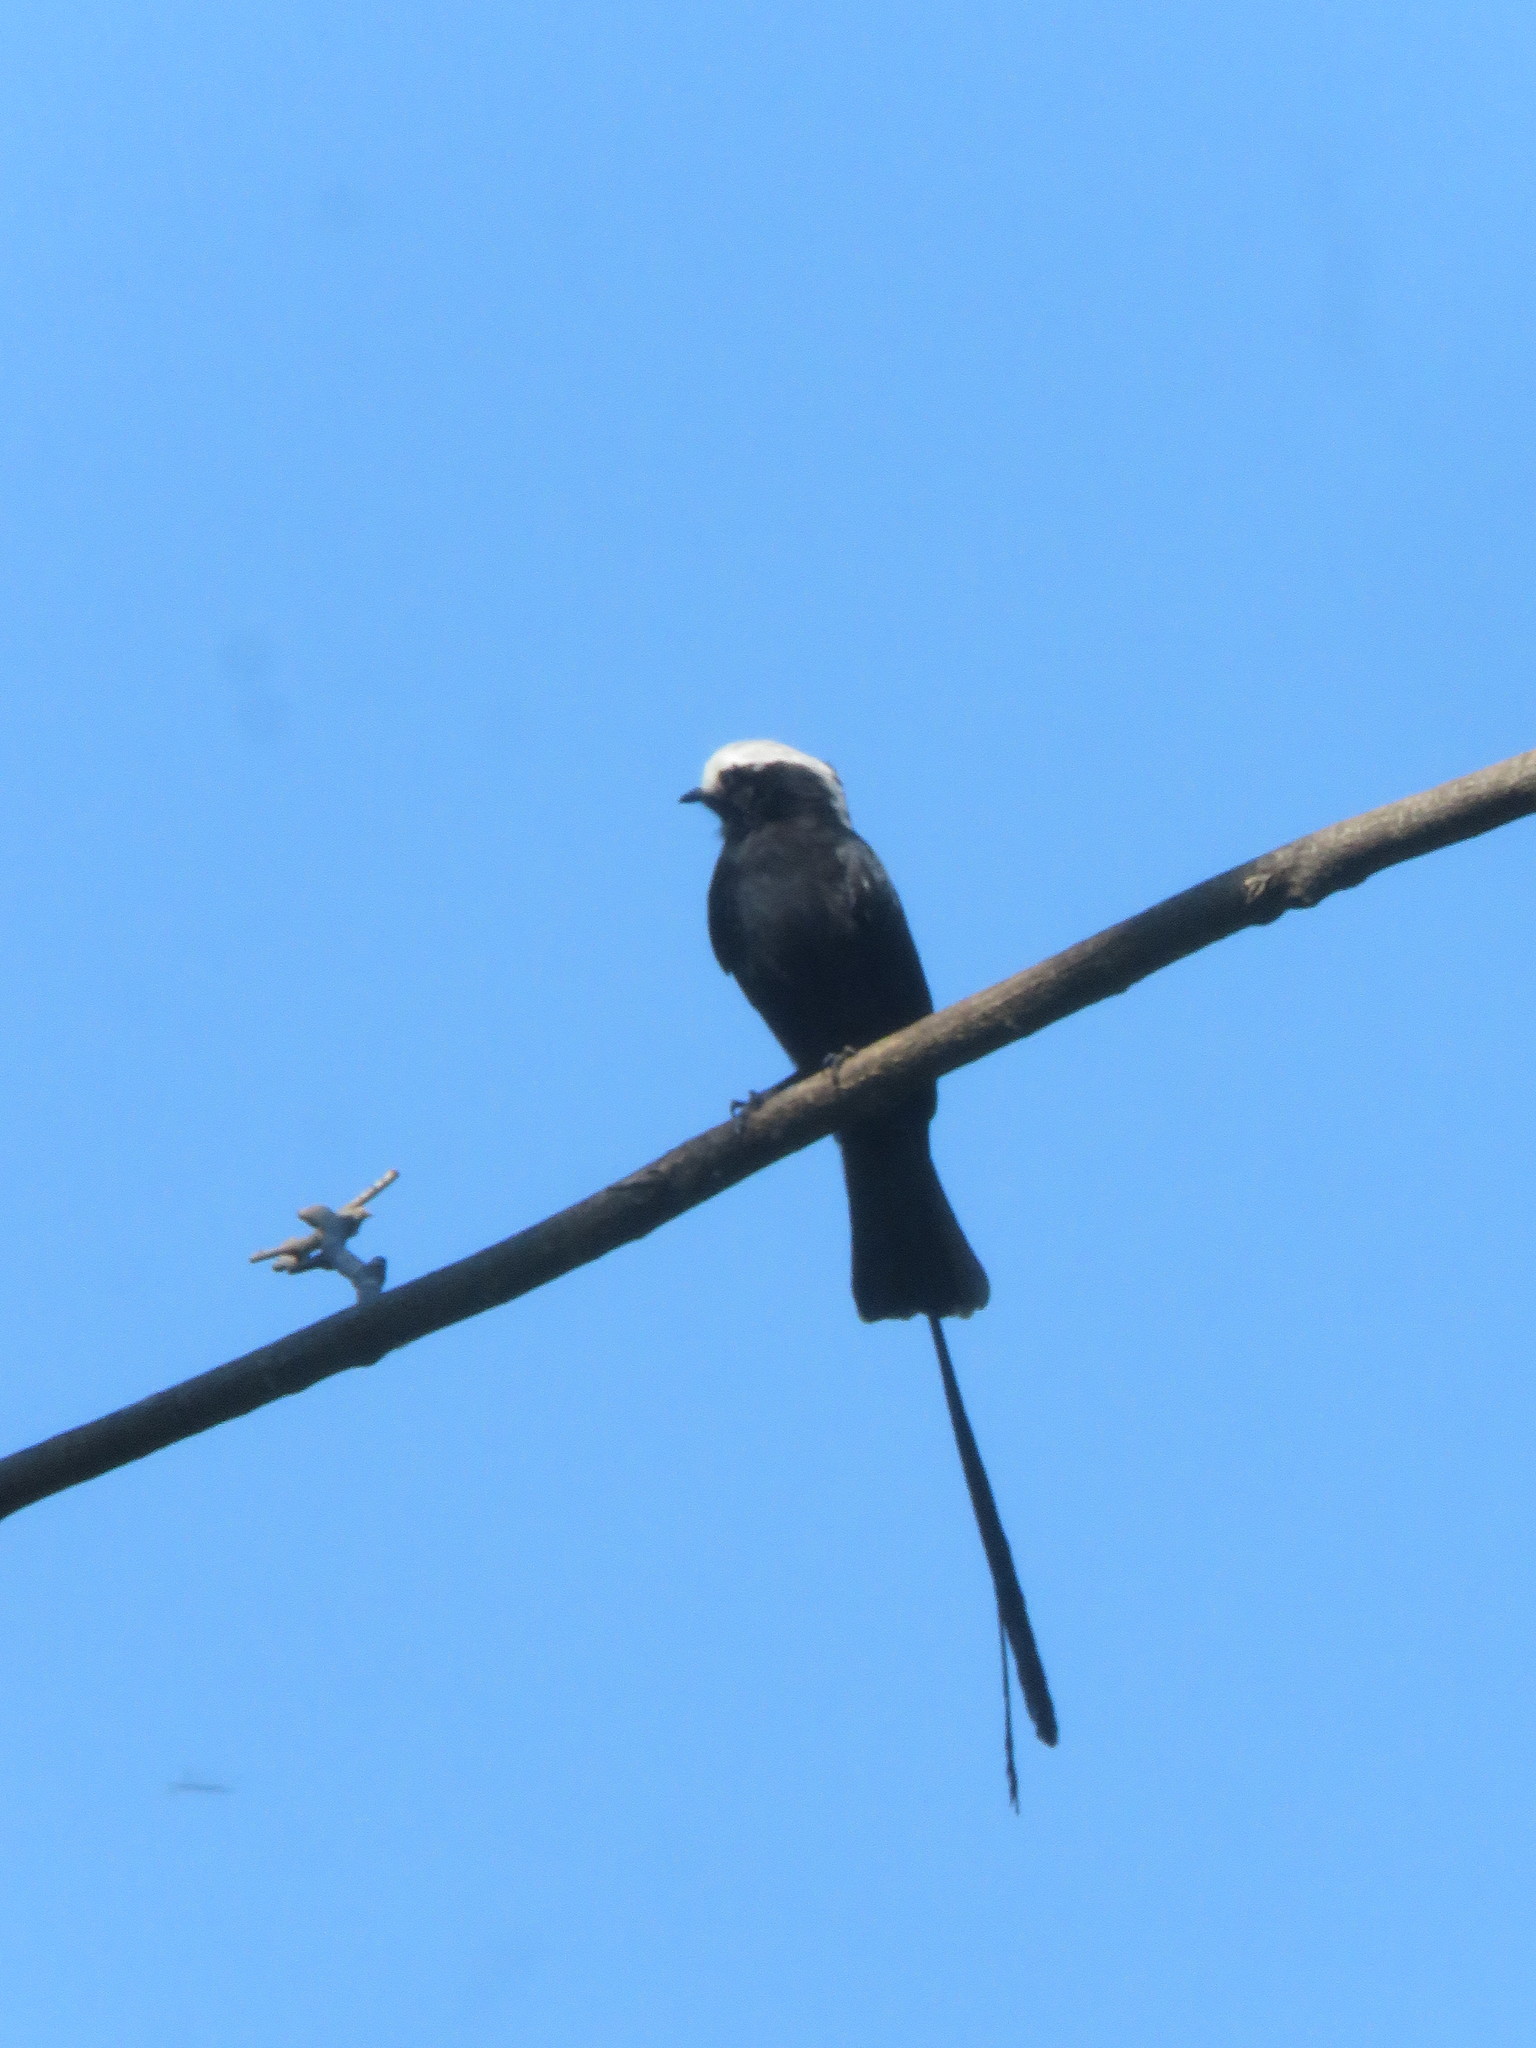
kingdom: Animalia
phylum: Chordata
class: Aves
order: Passeriformes
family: Tyrannidae
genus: Colonia
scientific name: Colonia colonus
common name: Long-tailed tyrant
